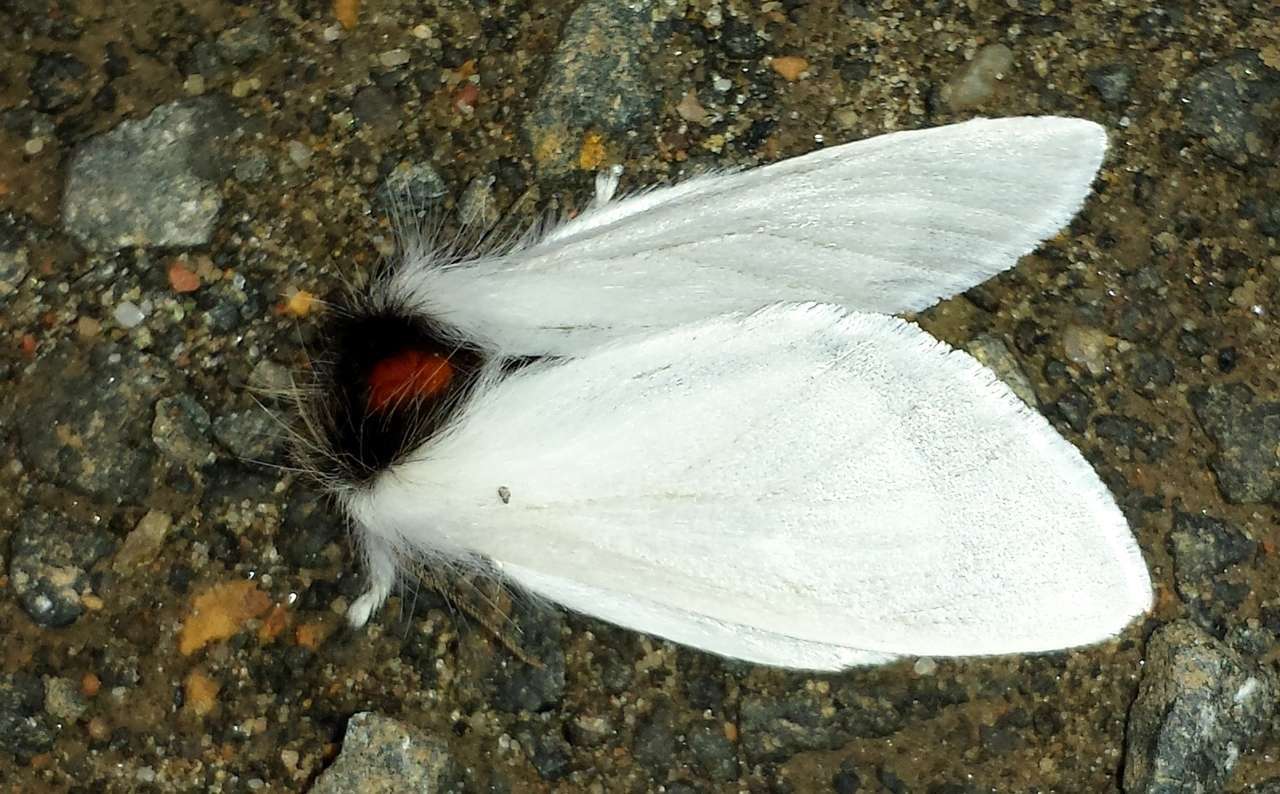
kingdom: Animalia
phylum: Arthropoda
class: Insecta
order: Lepidoptera
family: Notodontidae
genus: Trichiocercus
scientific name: Trichiocercus sparshalli
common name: Long-tailed satin
